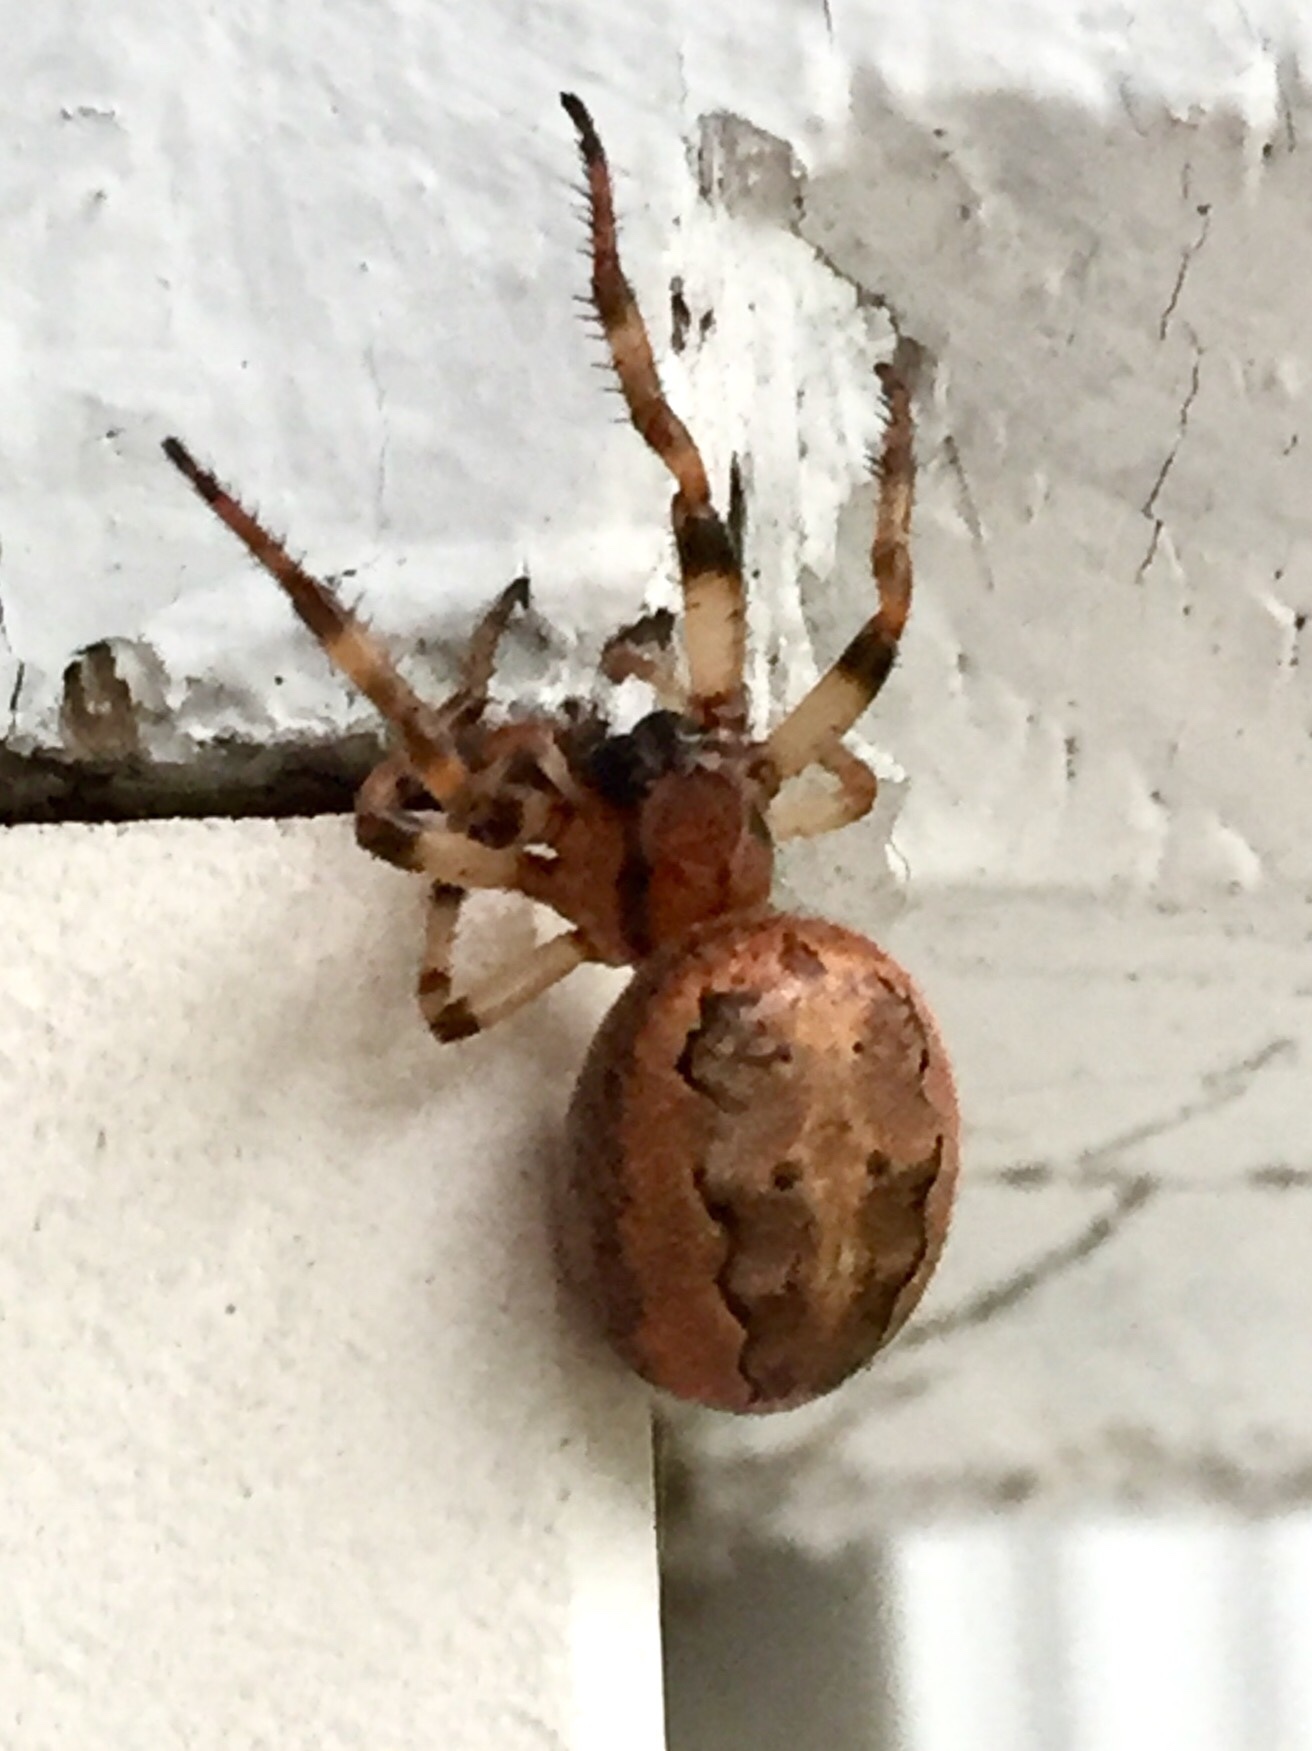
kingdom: Animalia
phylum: Arthropoda
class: Arachnida
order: Araneae
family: Araneidae
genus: Larinioides
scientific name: Larinioides cornutus
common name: Furrow orbweaver
